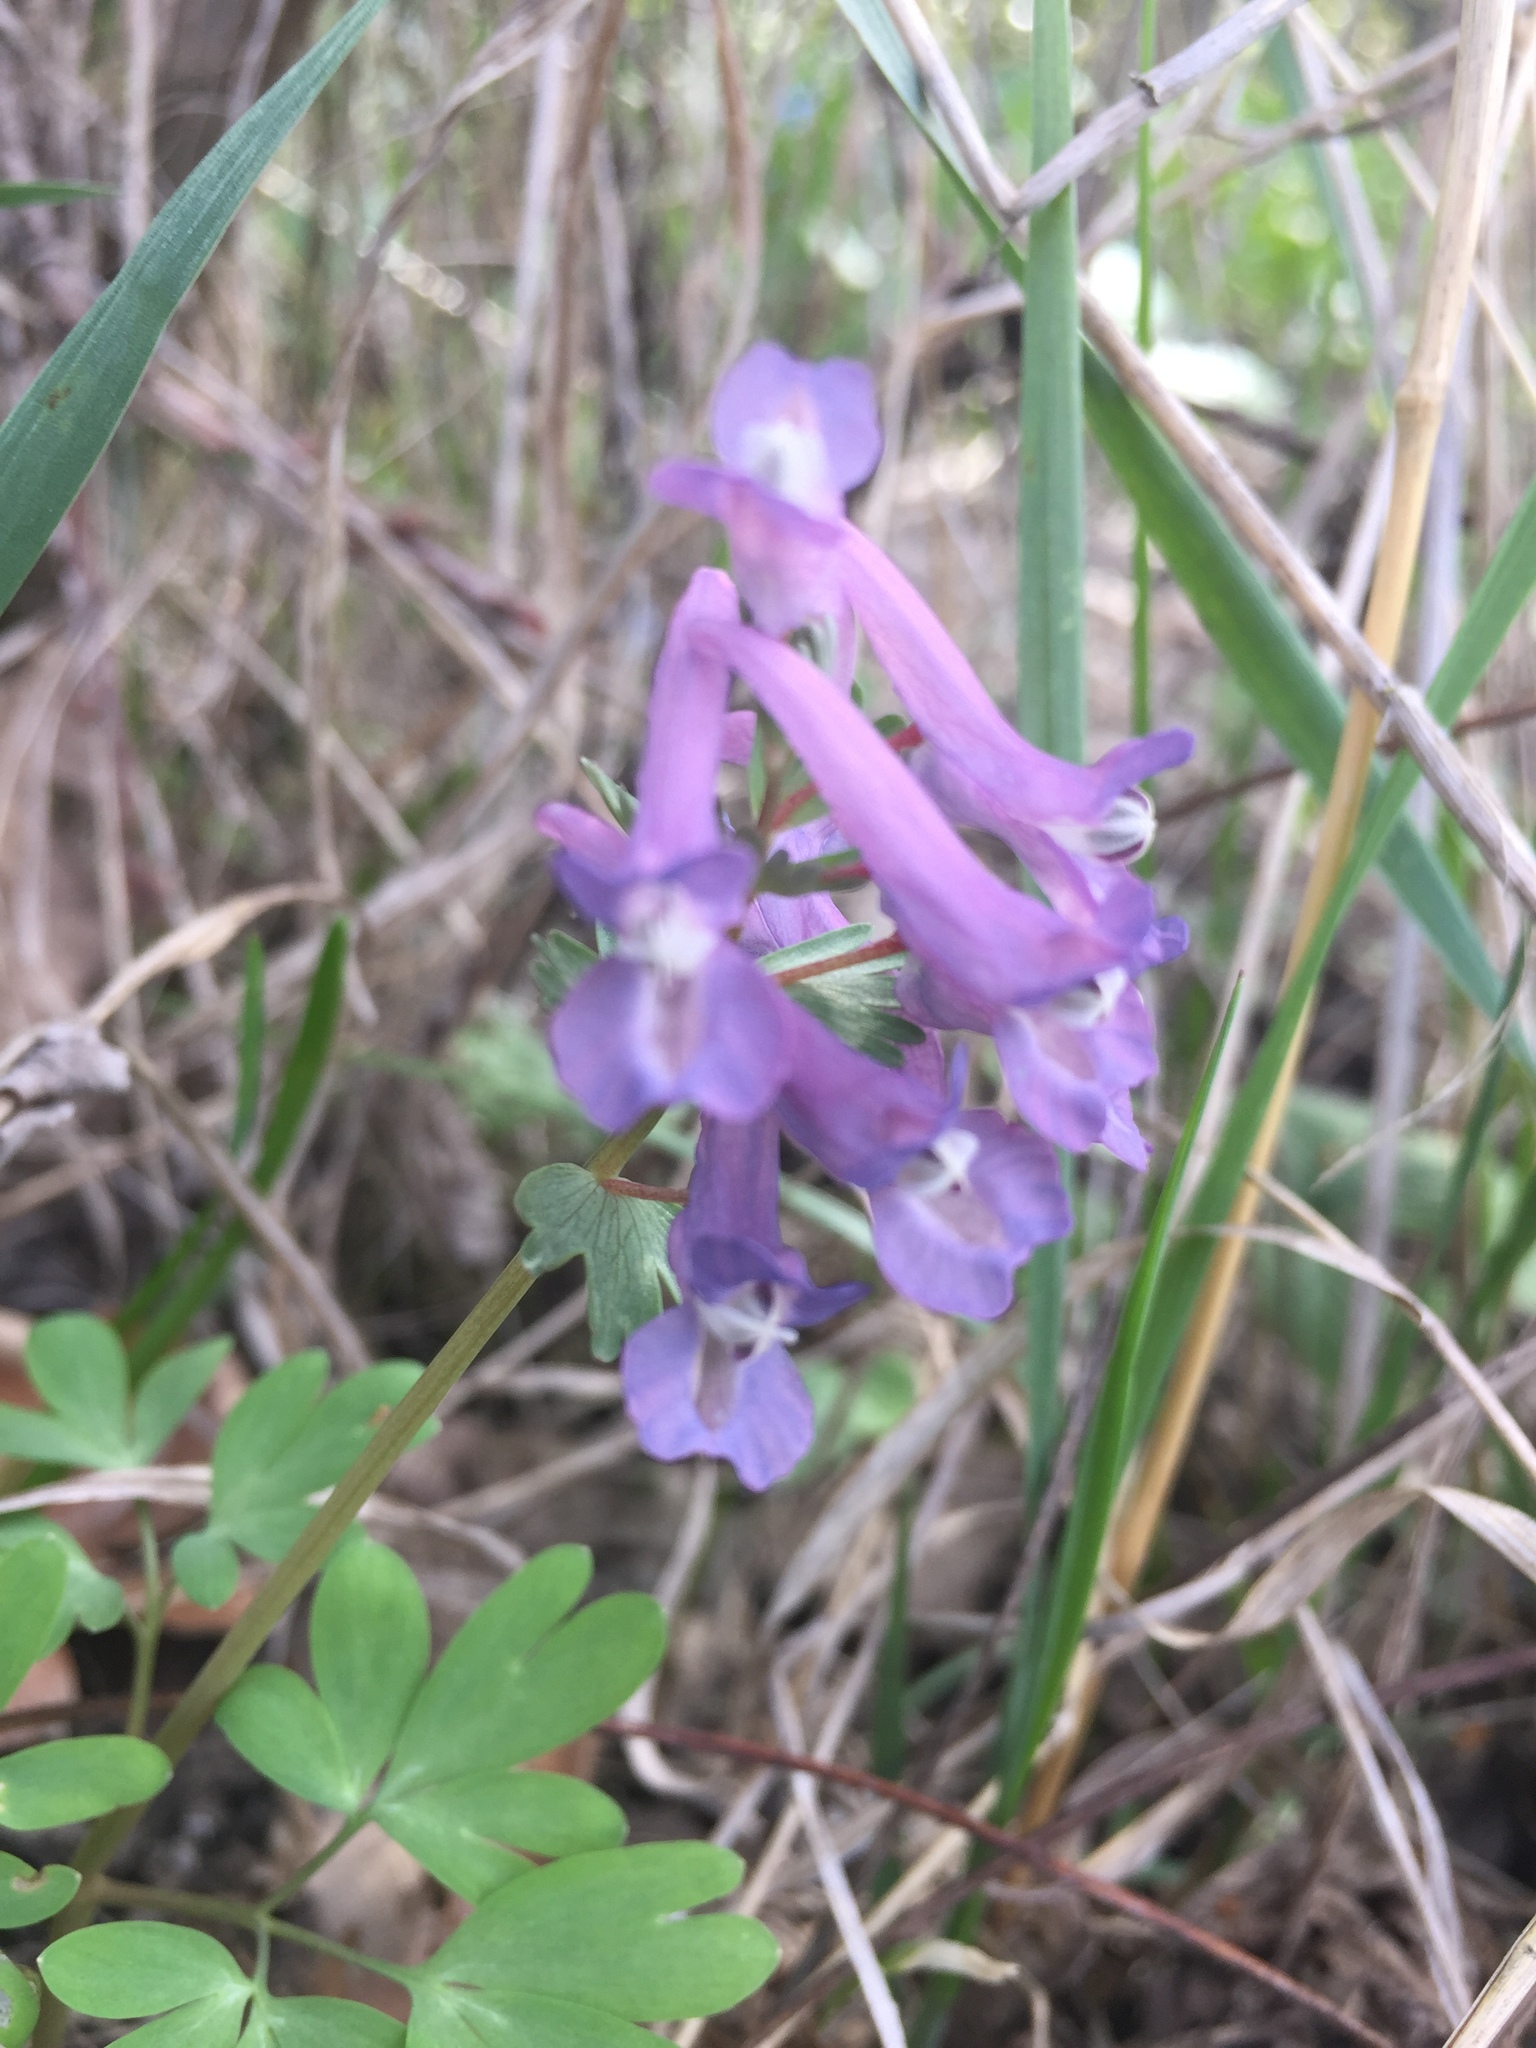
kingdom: Plantae
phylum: Tracheophyta
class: Magnoliopsida
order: Ranunculales
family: Papaveraceae
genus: Corydalis
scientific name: Corydalis solida
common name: Bird-in-a-bush
